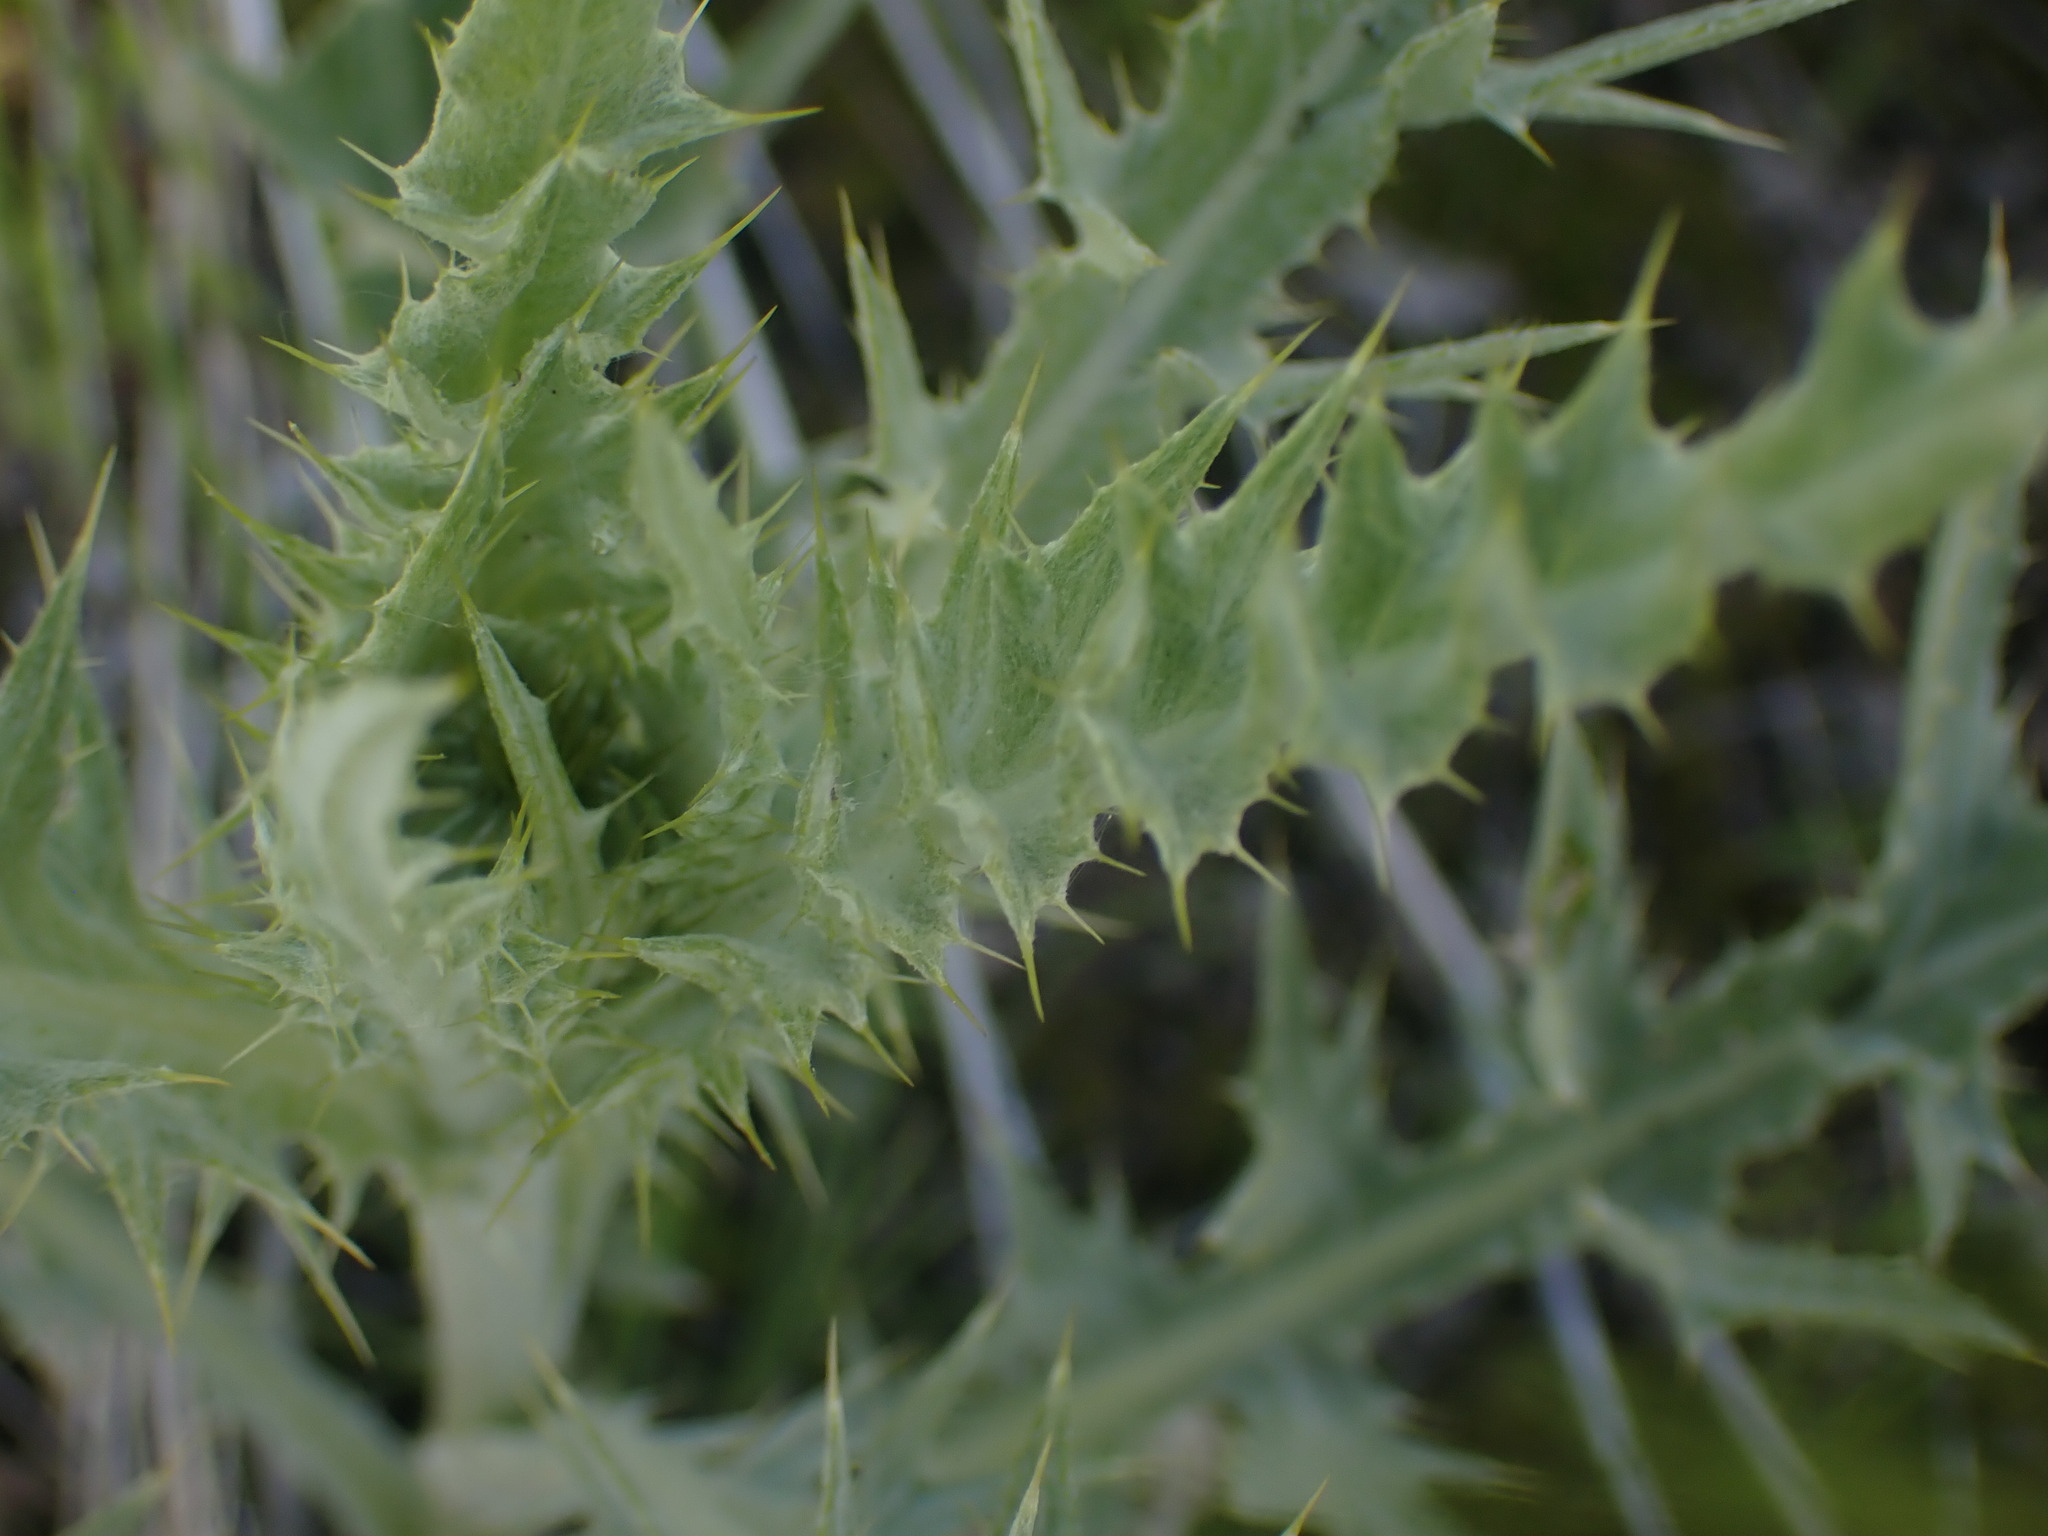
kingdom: Plantae
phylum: Tracheophyta
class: Magnoliopsida
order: Asterales
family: Asteraceae
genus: Cirsium
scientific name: Cirsium undulatum
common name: Pasture thistle
